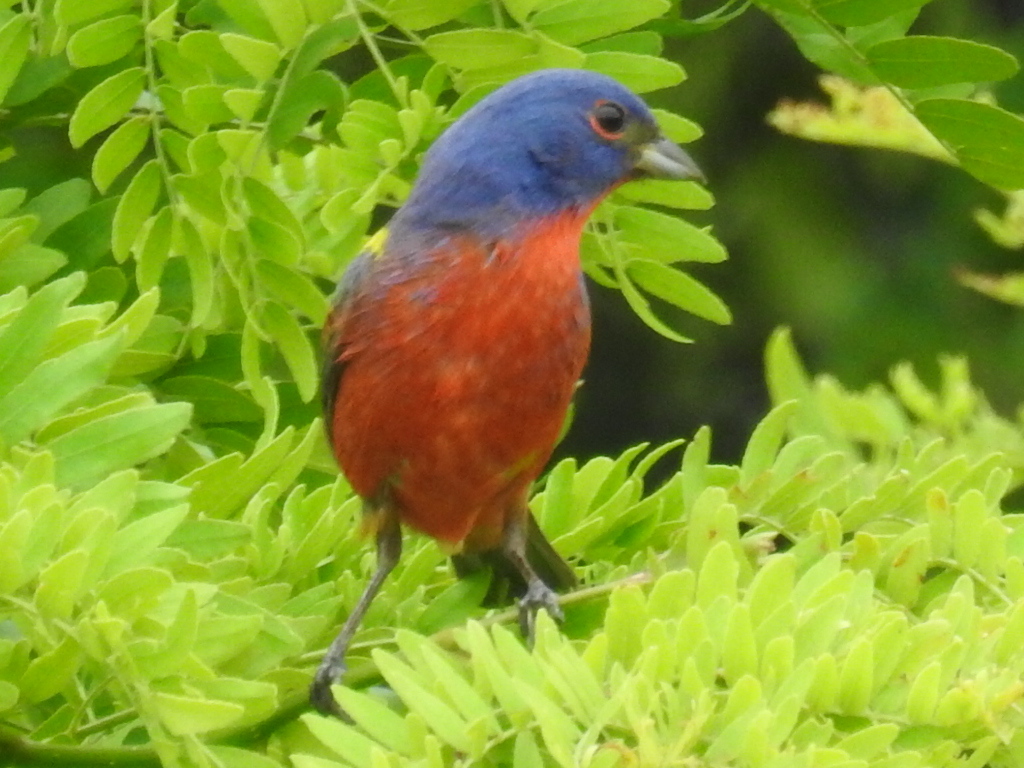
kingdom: Animalia
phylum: Chordata
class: Aves
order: Passeriformes
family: Cardinalidae
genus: Passerina
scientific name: Passerina ciris
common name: Painted bunting
